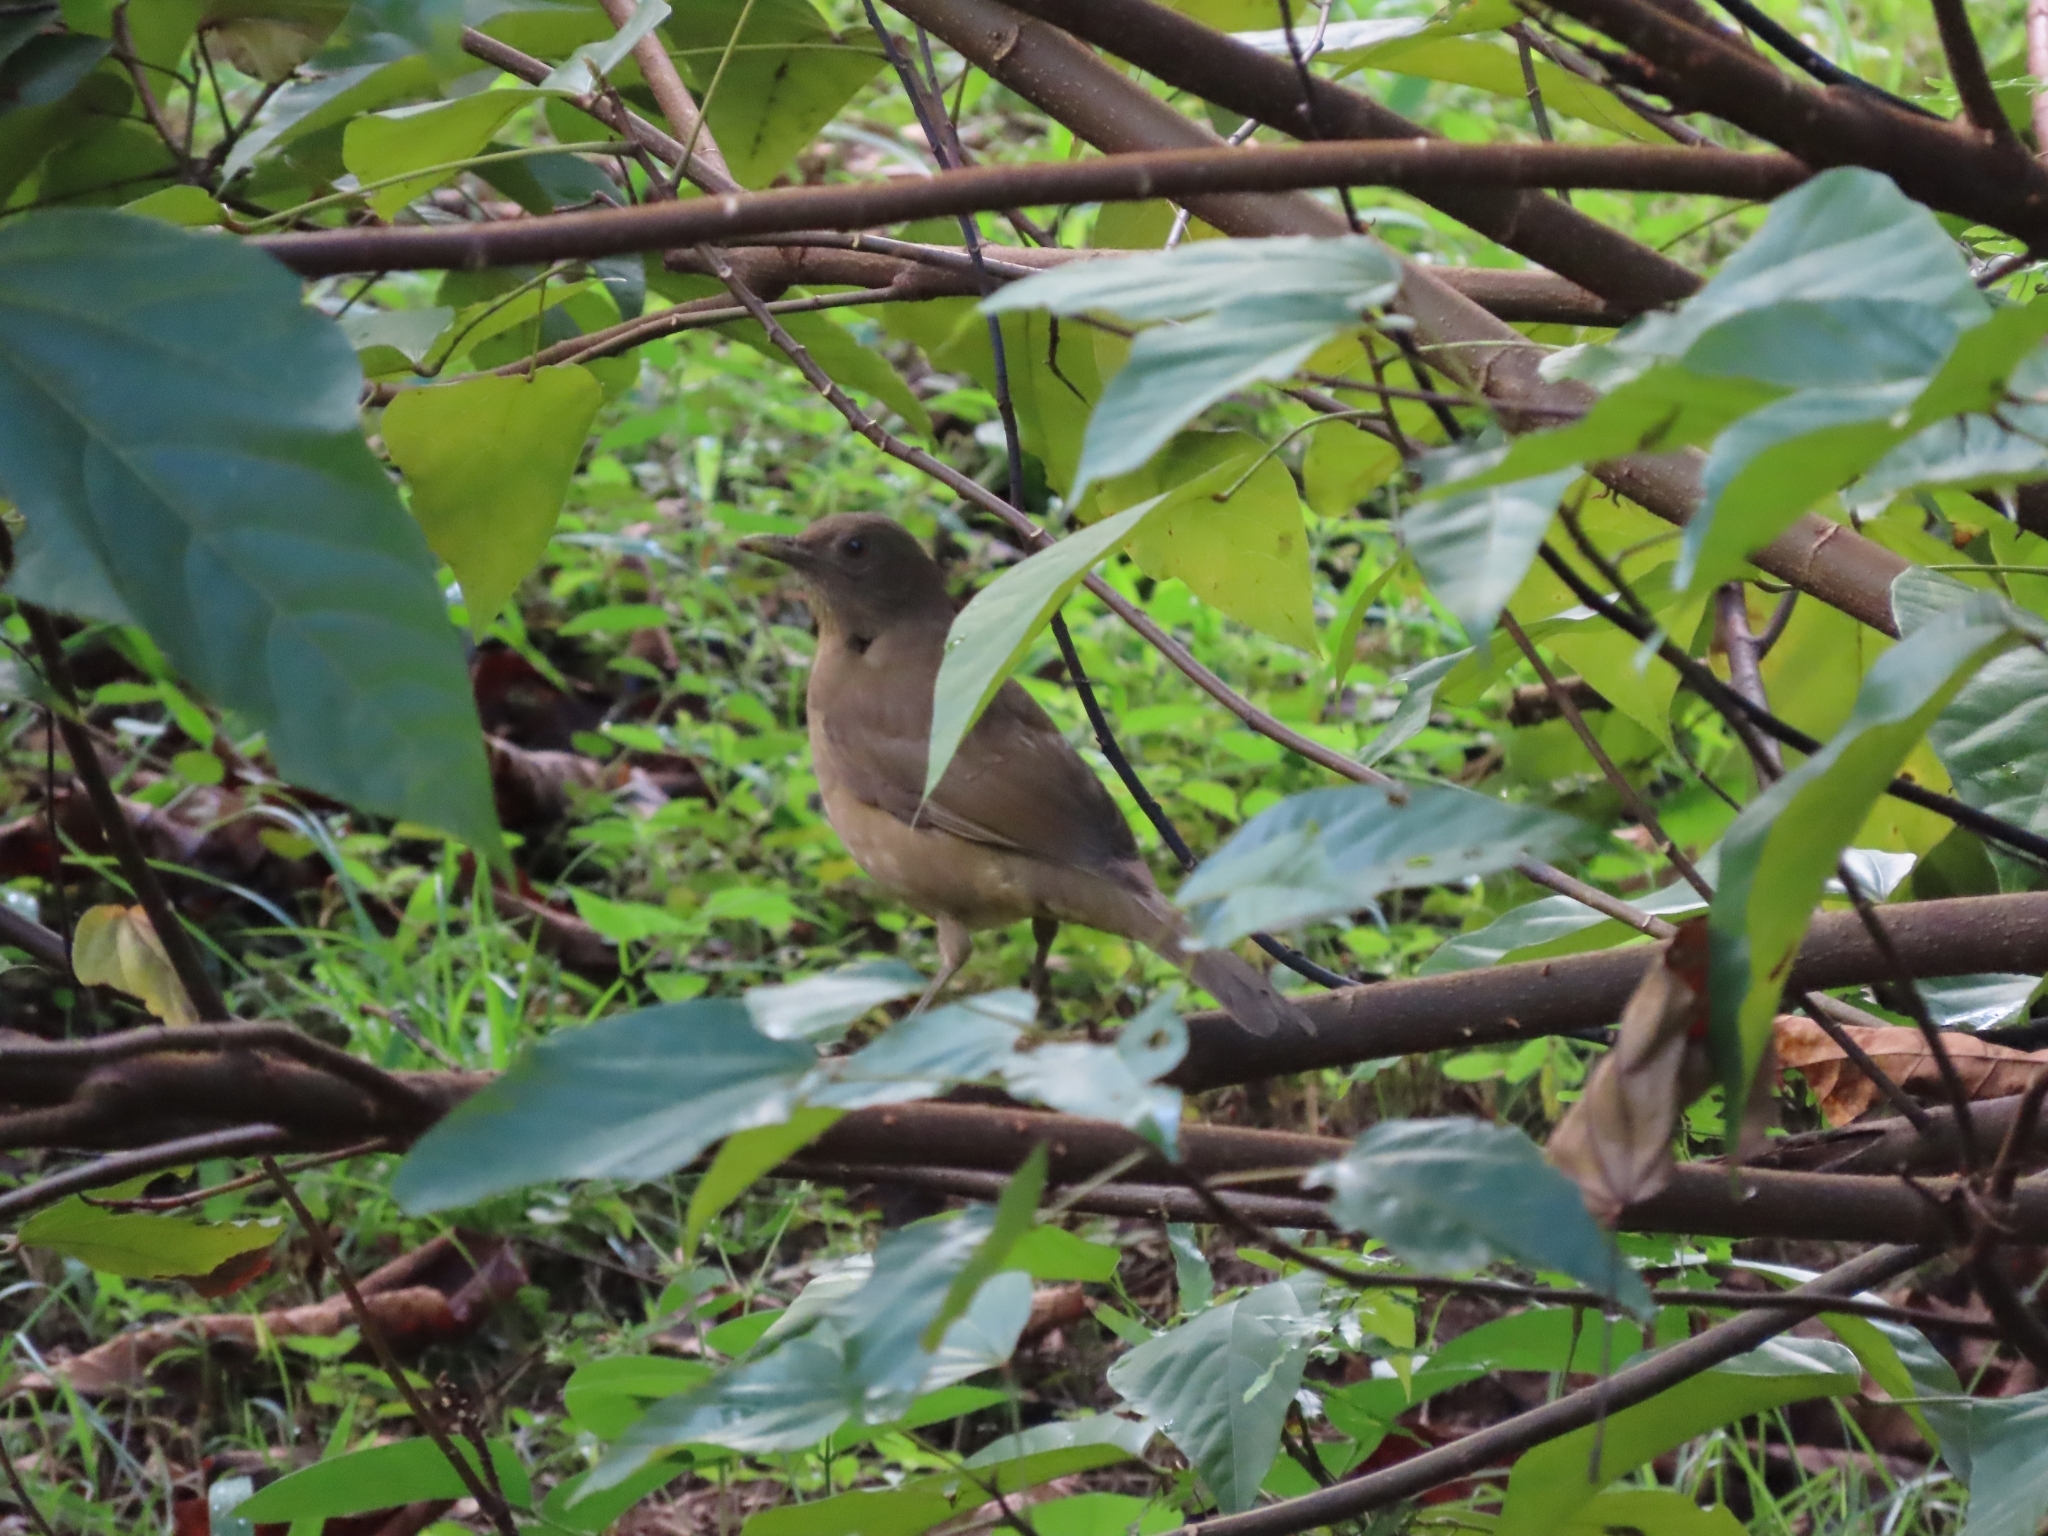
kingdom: Animalia
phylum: Chordata
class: Aves
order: Passeriformes
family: Turdidae
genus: Turdus
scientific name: Turdus grayi
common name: Clay-colored thrush
